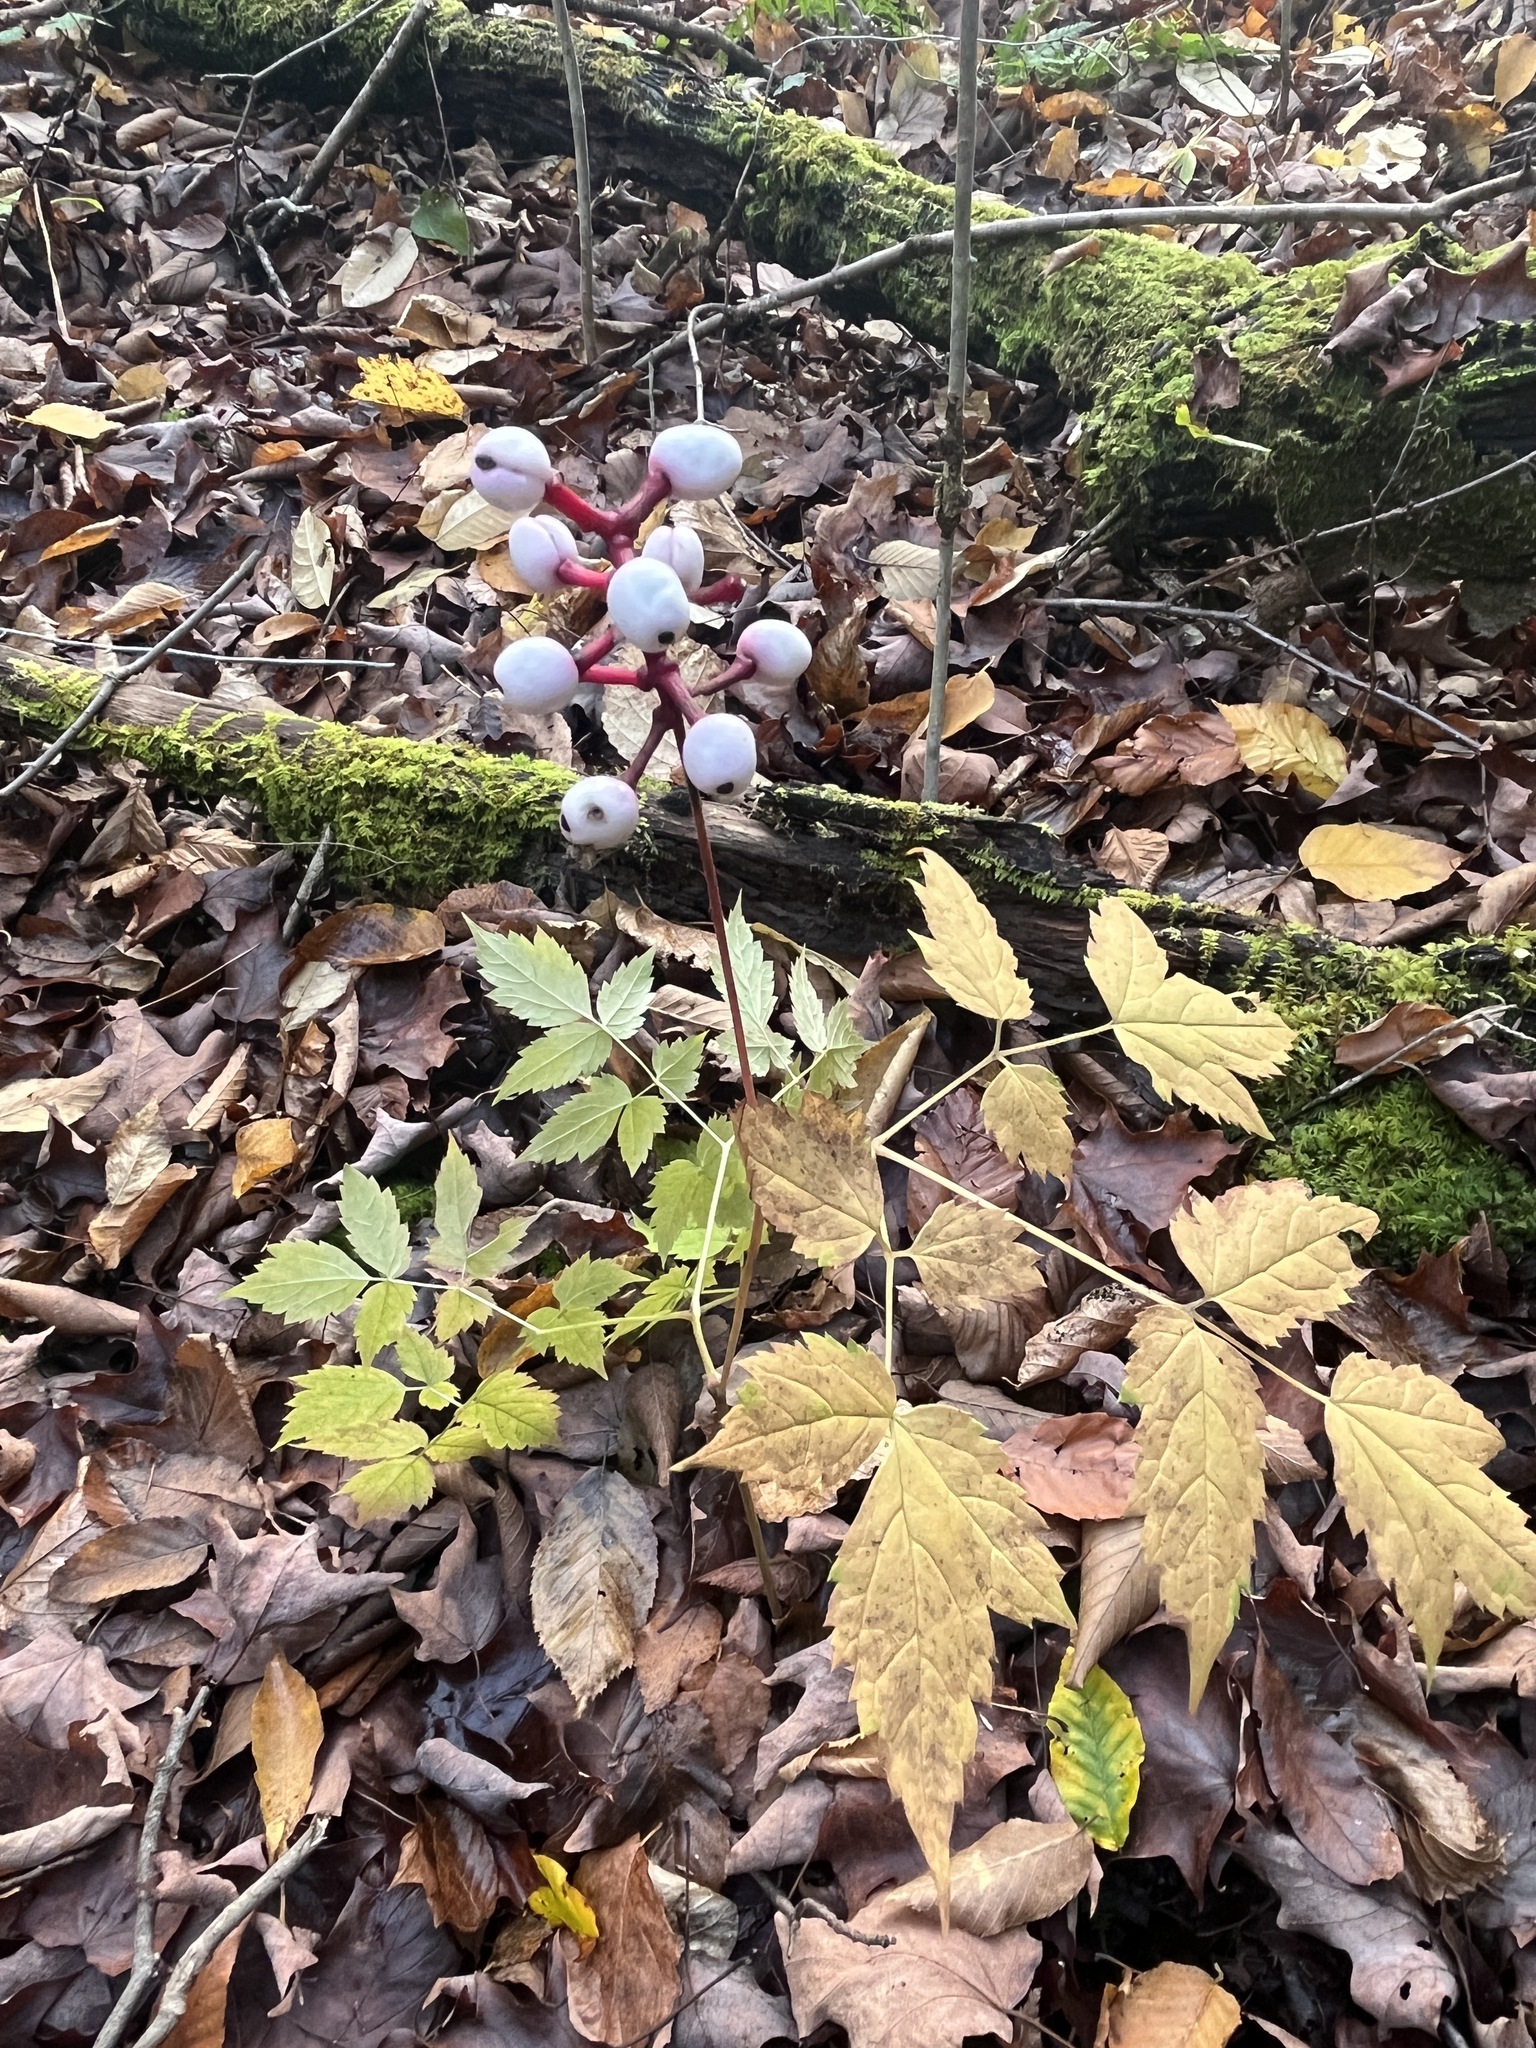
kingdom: Plantae
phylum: Tracheophyta
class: Magnoliopsida
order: Ranunculales
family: Ranunculaceae
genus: Actaea
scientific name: Actaea pachypoda
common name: Doll's-eyes
